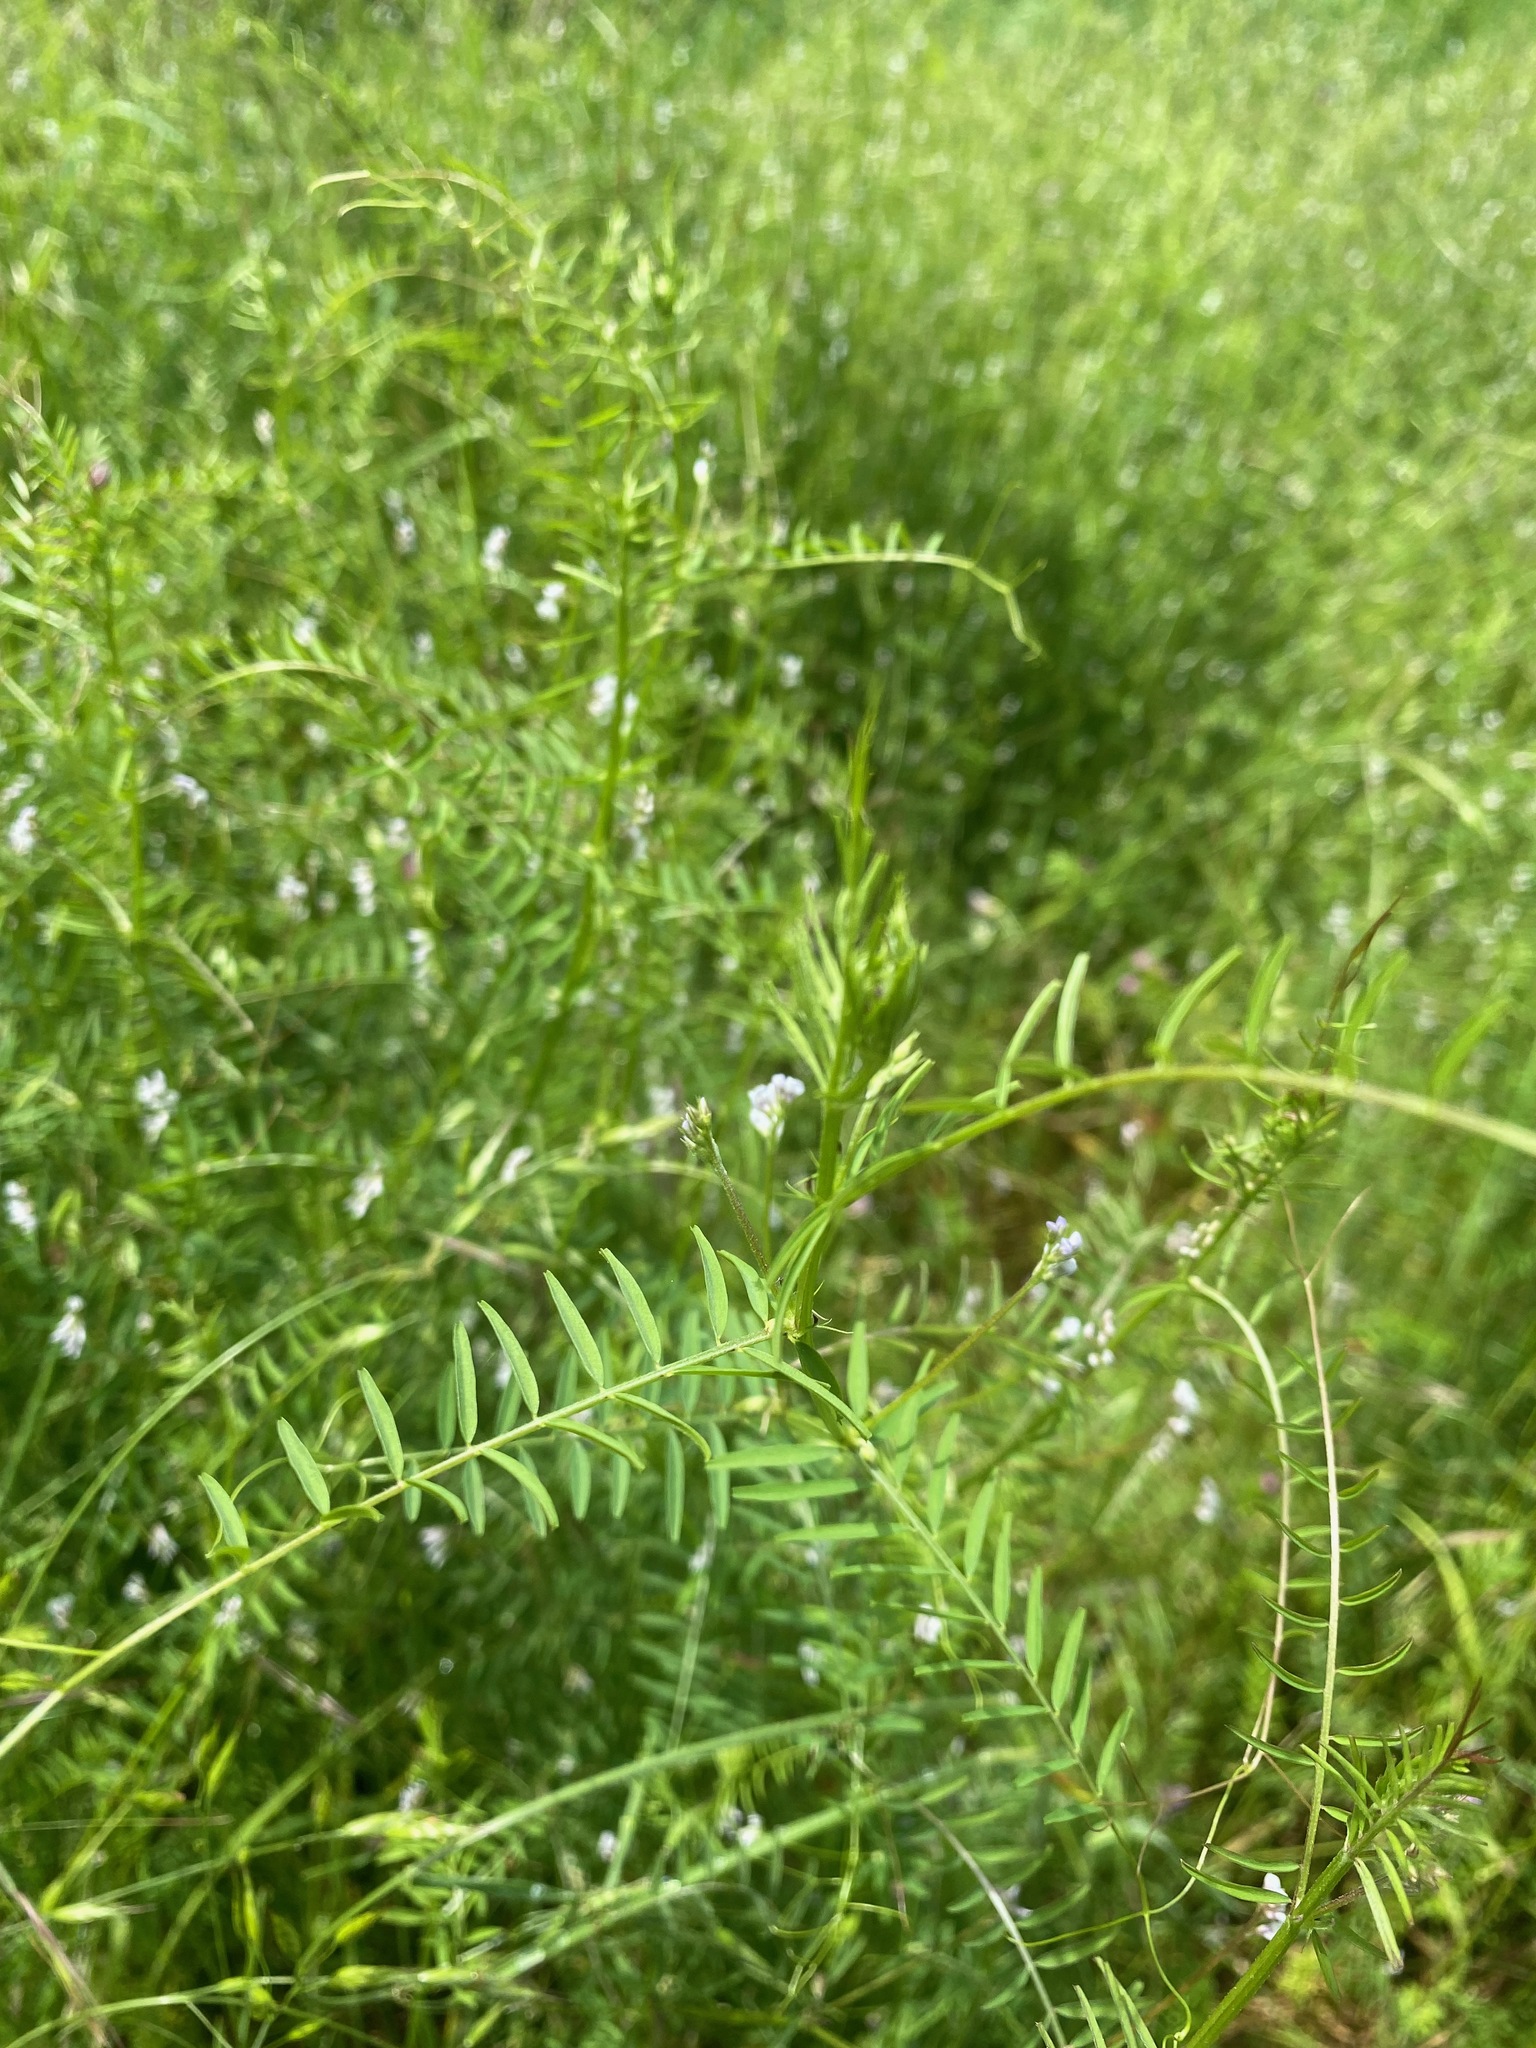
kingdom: Plantae
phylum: Tracheophyta
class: Magnoliopsida
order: Fabales
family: Fabaceae
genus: Vicia
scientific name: Vicia hirsuta
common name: Tiny vetch
